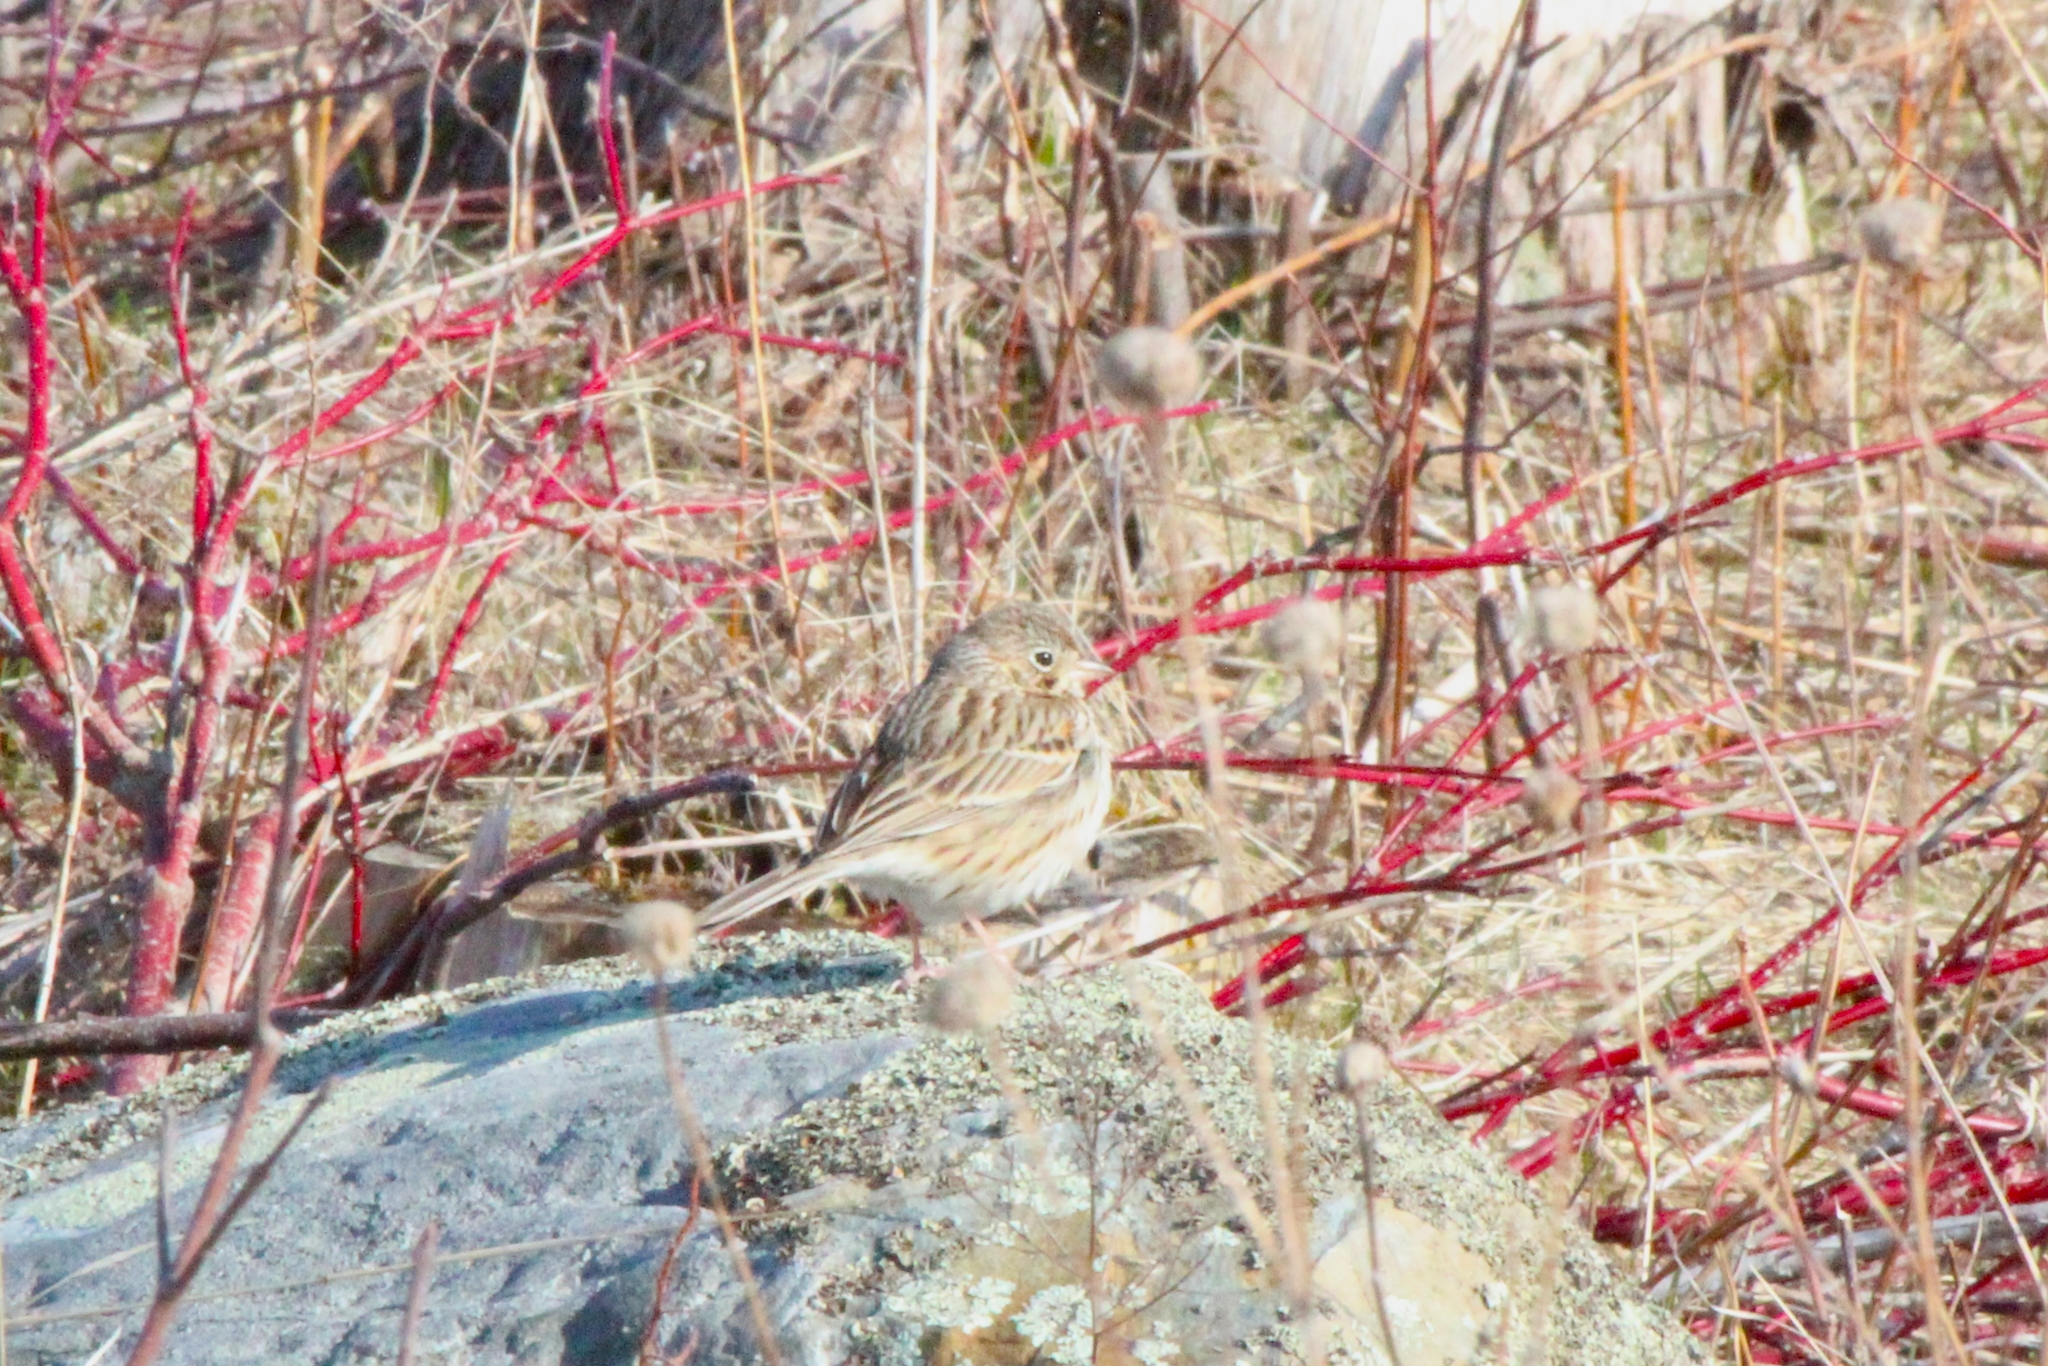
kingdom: Animalia
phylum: Chordata
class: Aves
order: Passeriformes
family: Passerellidae
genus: Pooecetes
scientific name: Pooecetes gramineus
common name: Vesper sparrow
